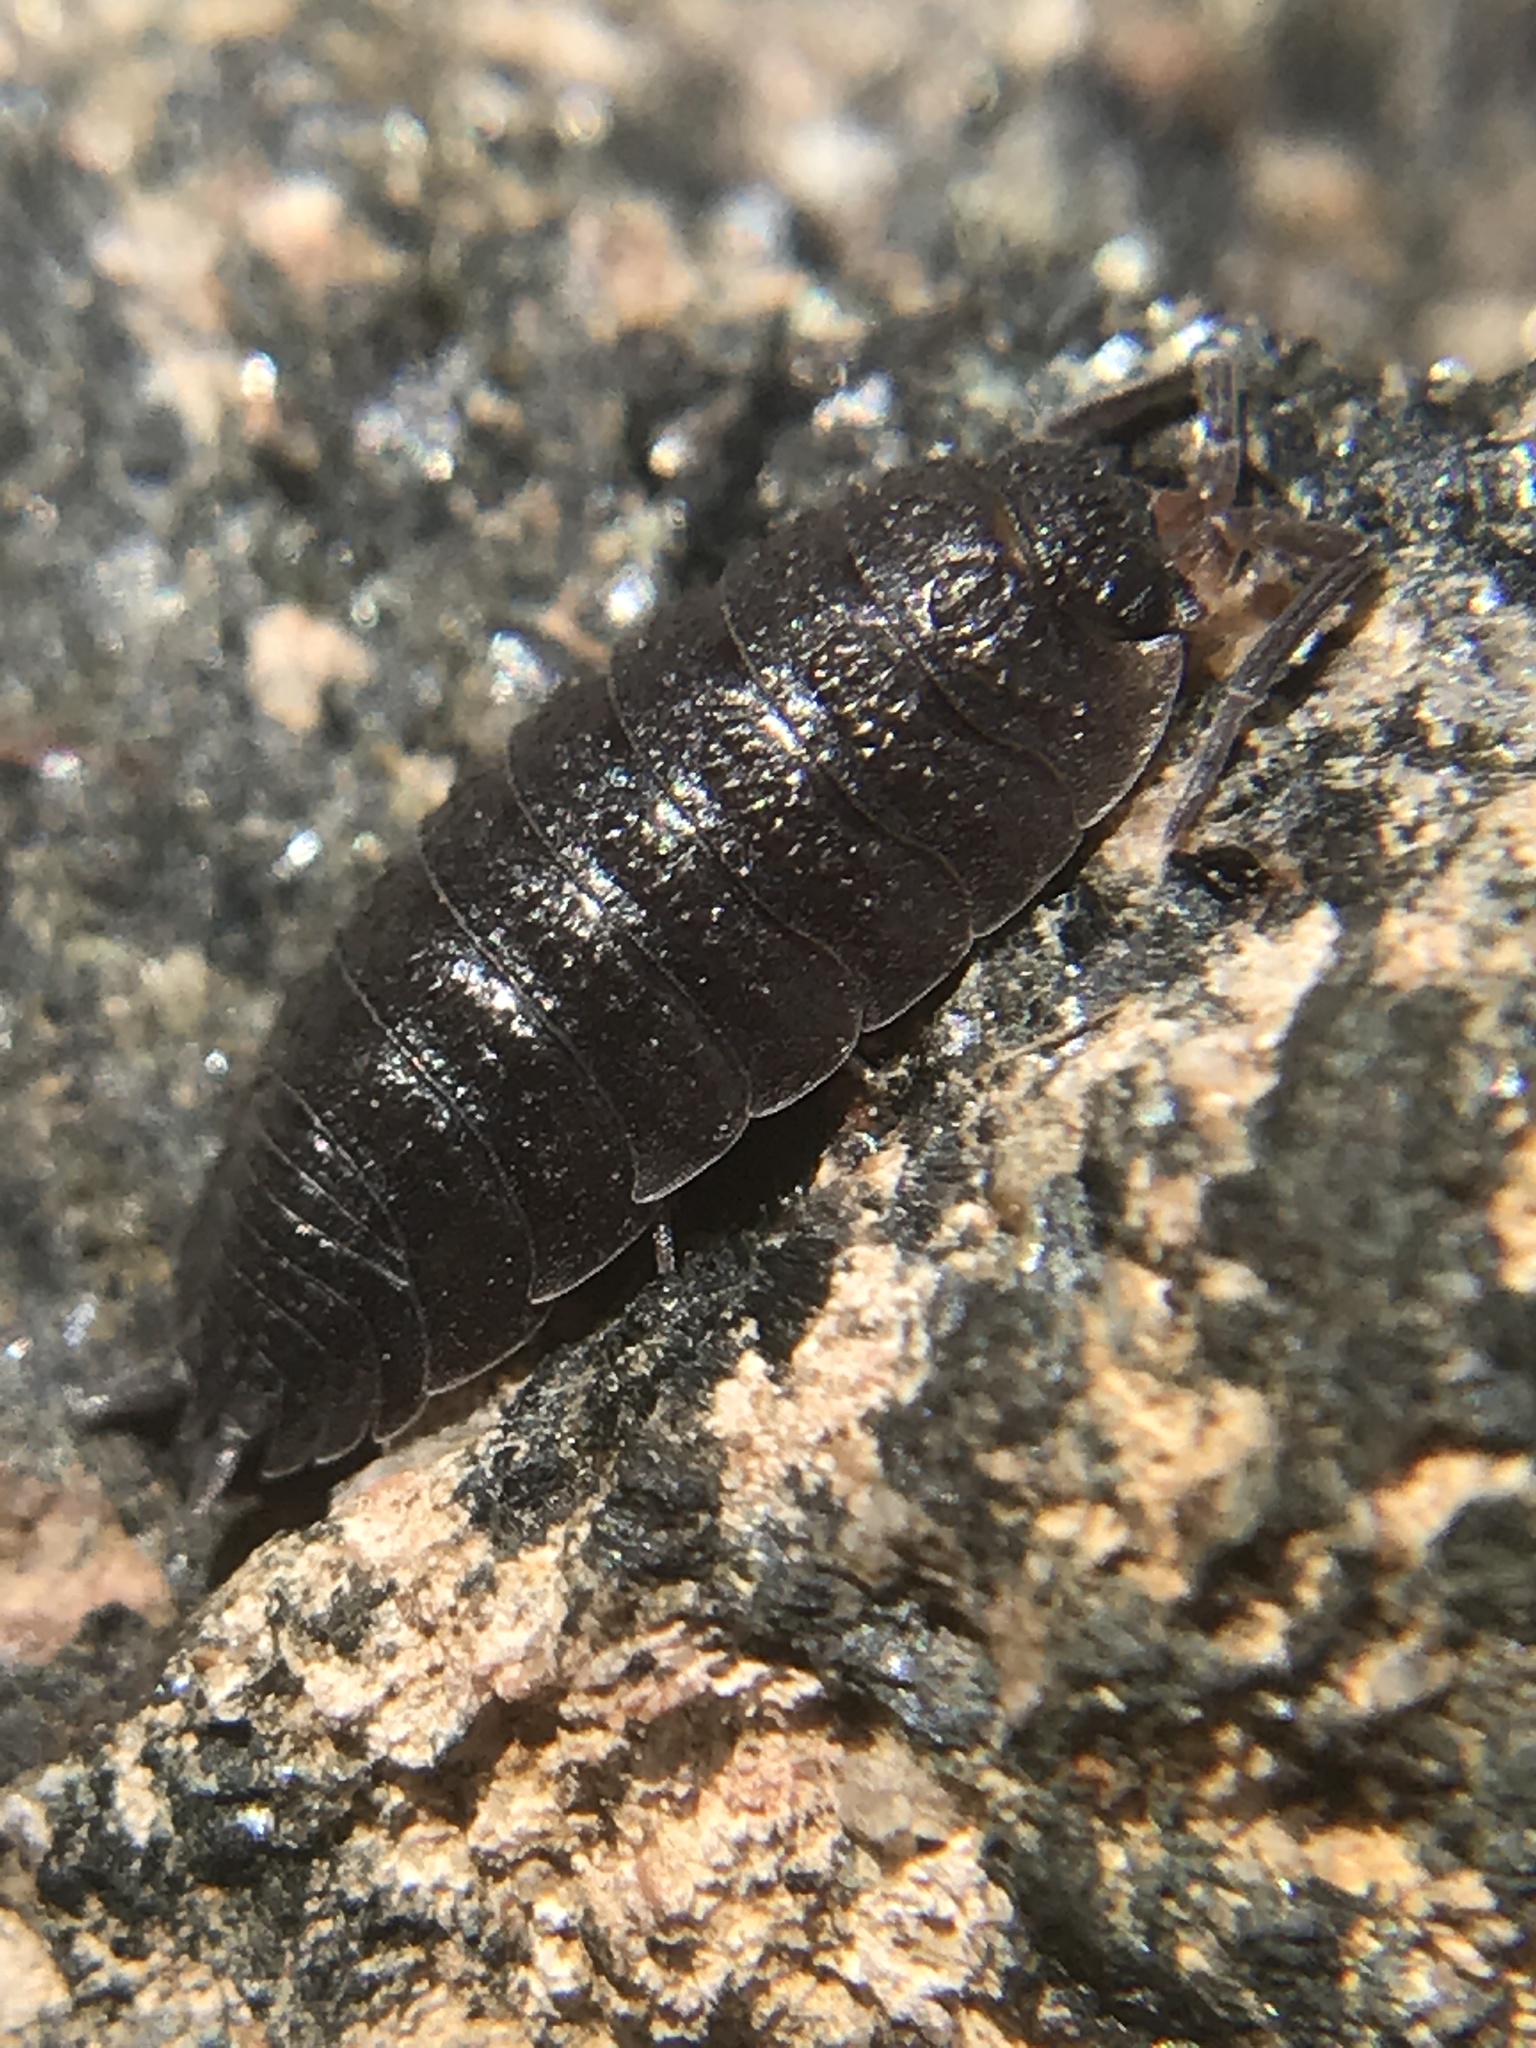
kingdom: Animalia
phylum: Arthropoda
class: Malacostraca
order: Isopoda
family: Porcellionidae
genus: Porcellio
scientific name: Porcellio scaber
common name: Common rough woodlouse
